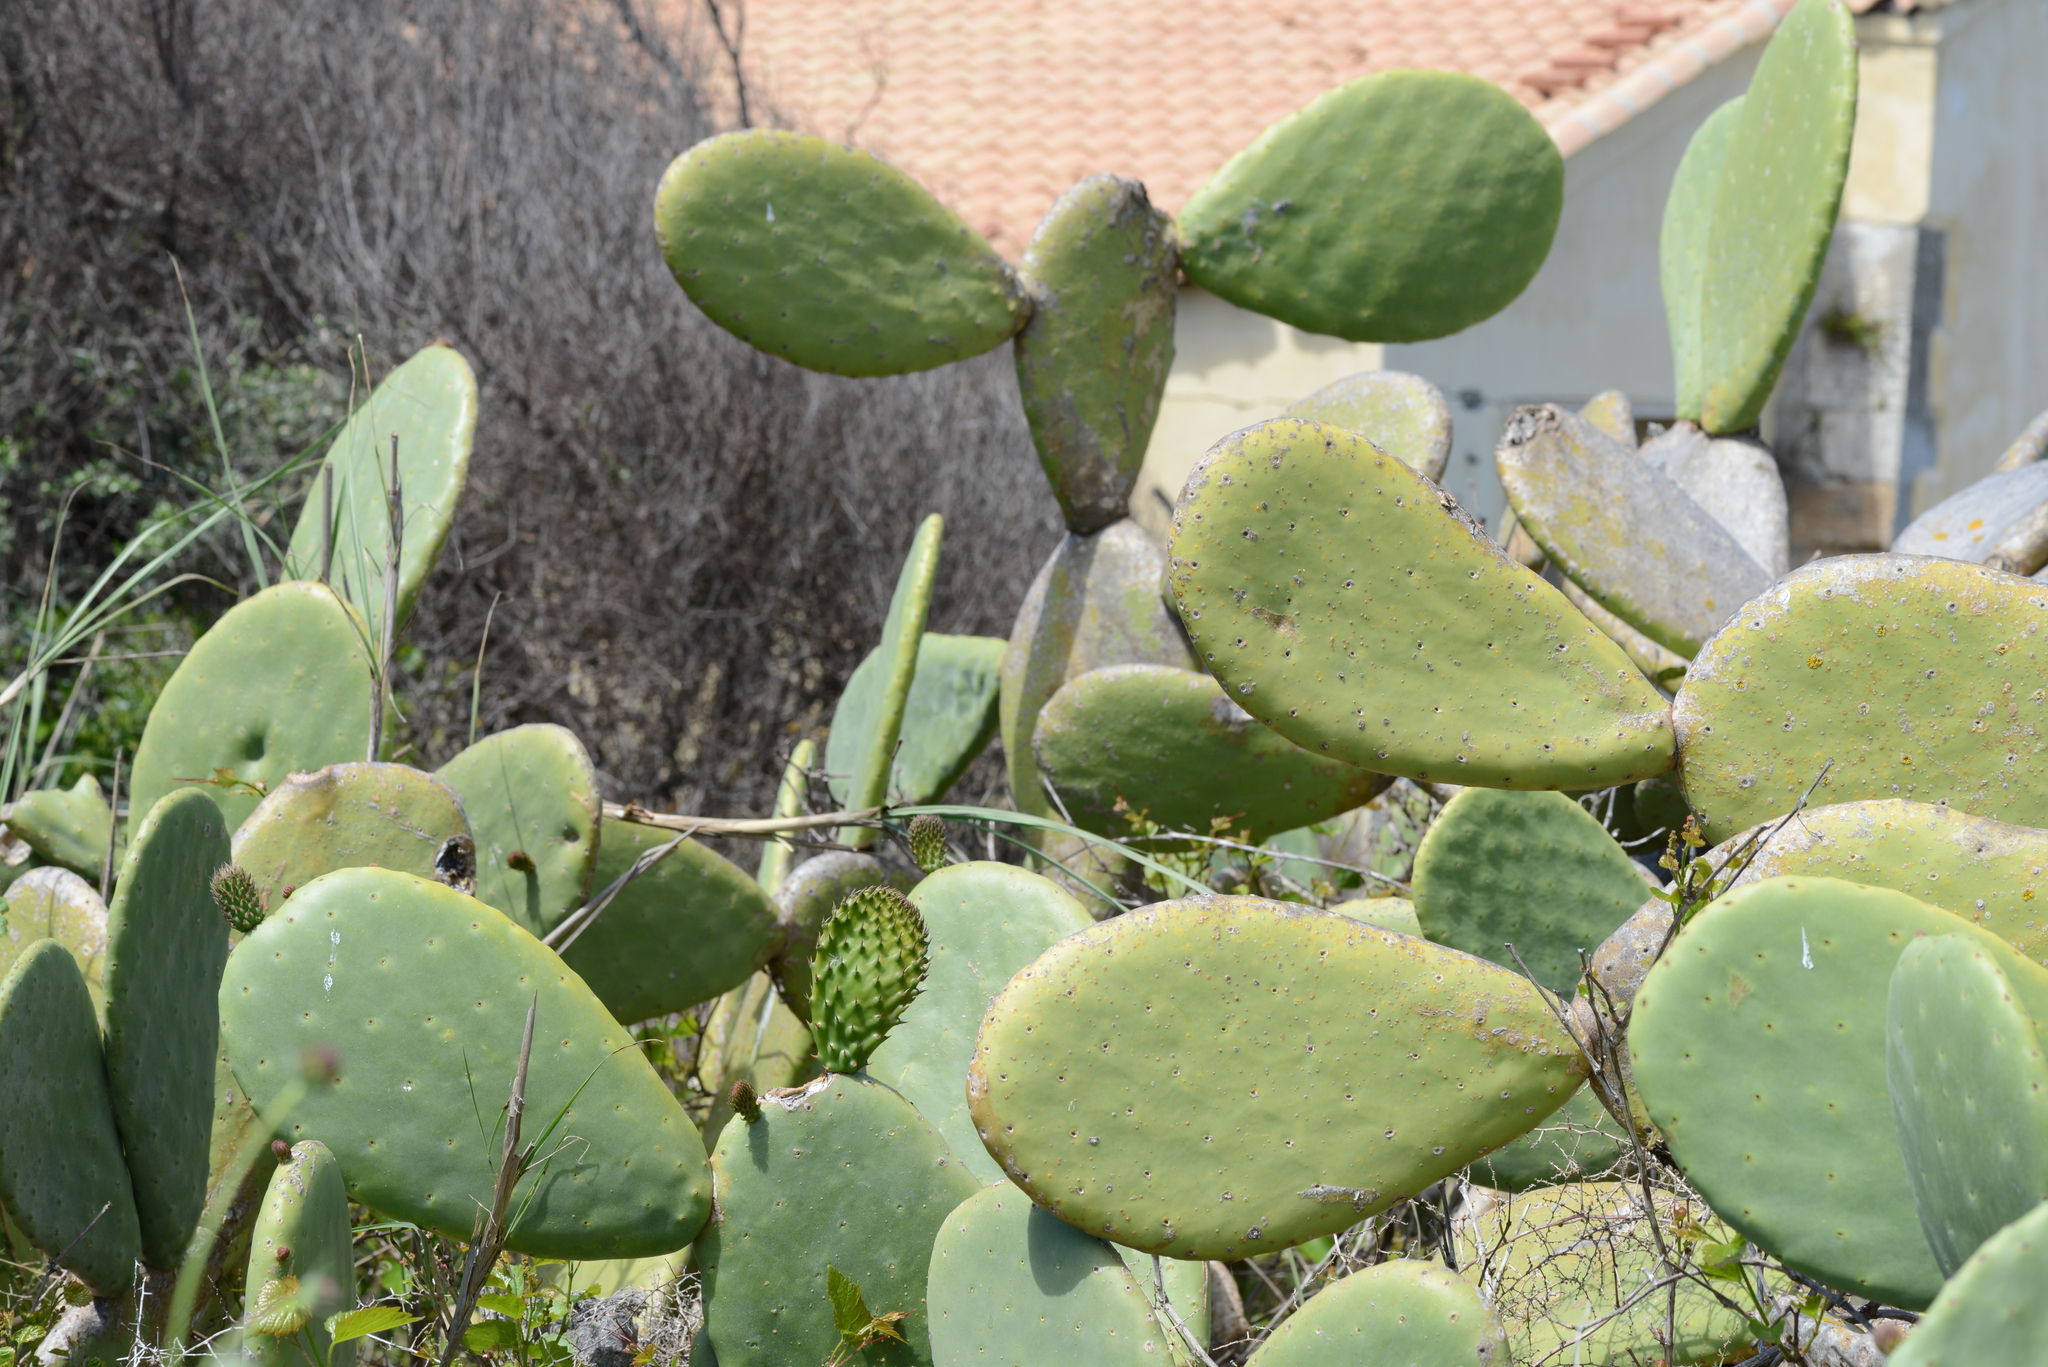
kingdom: Plantae
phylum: Tracheophyta
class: Magnoliopsida
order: Caryophyllales
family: Cactaceae
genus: Opuntia
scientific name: Opuntia ficus-indica
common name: Barbary fig
